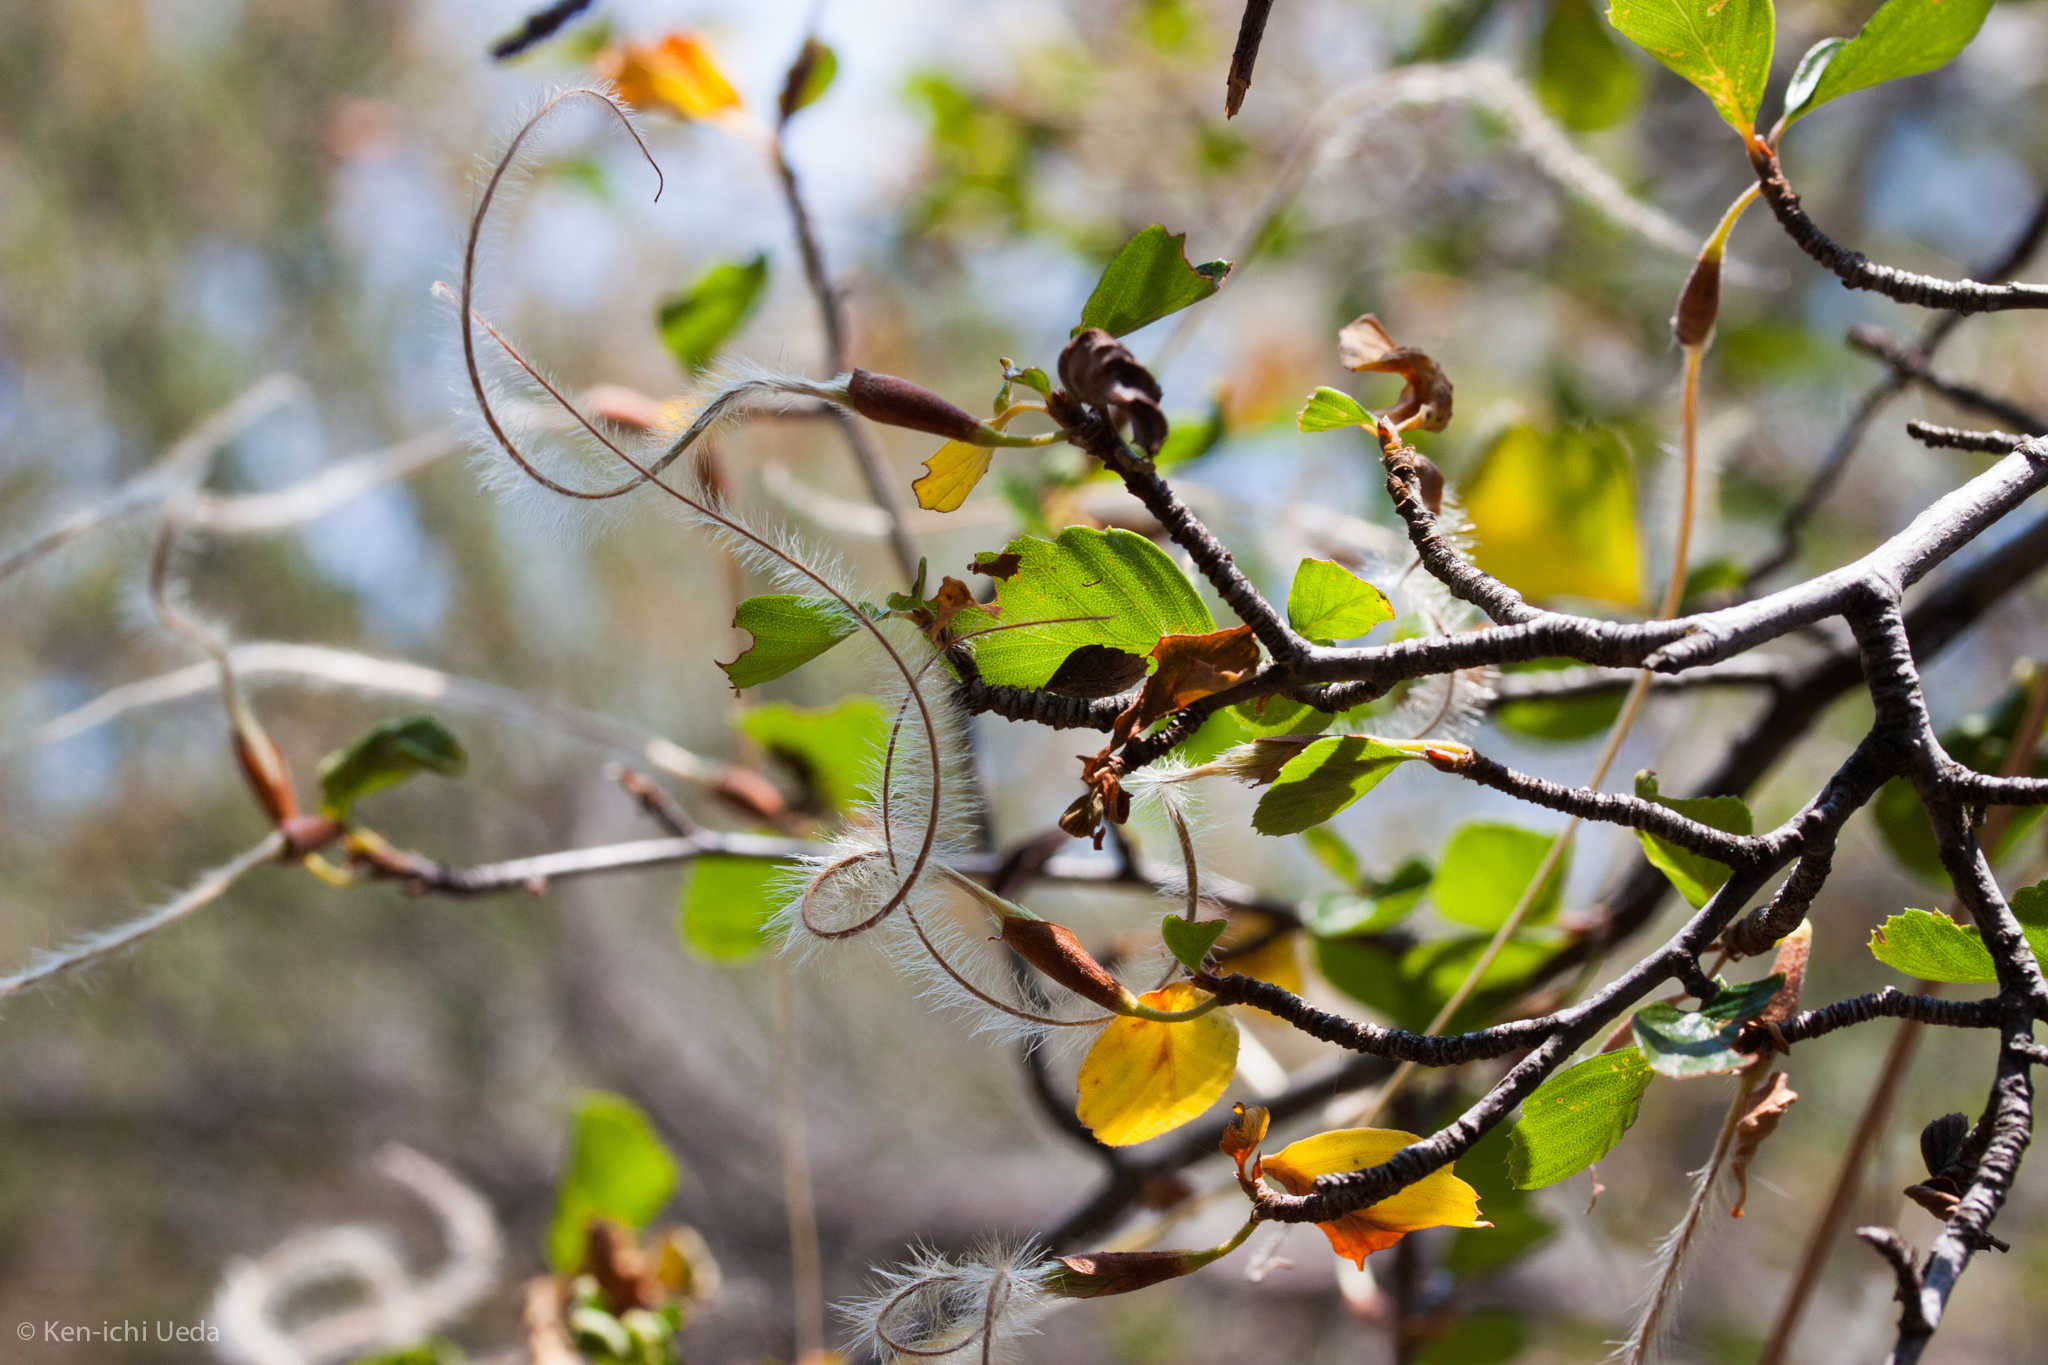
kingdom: Plantae
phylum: Tracheophyta
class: Magnoliopsida
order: Rosales
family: Rosaceae
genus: Cercocarpus
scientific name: Cercocarpus betuloides
